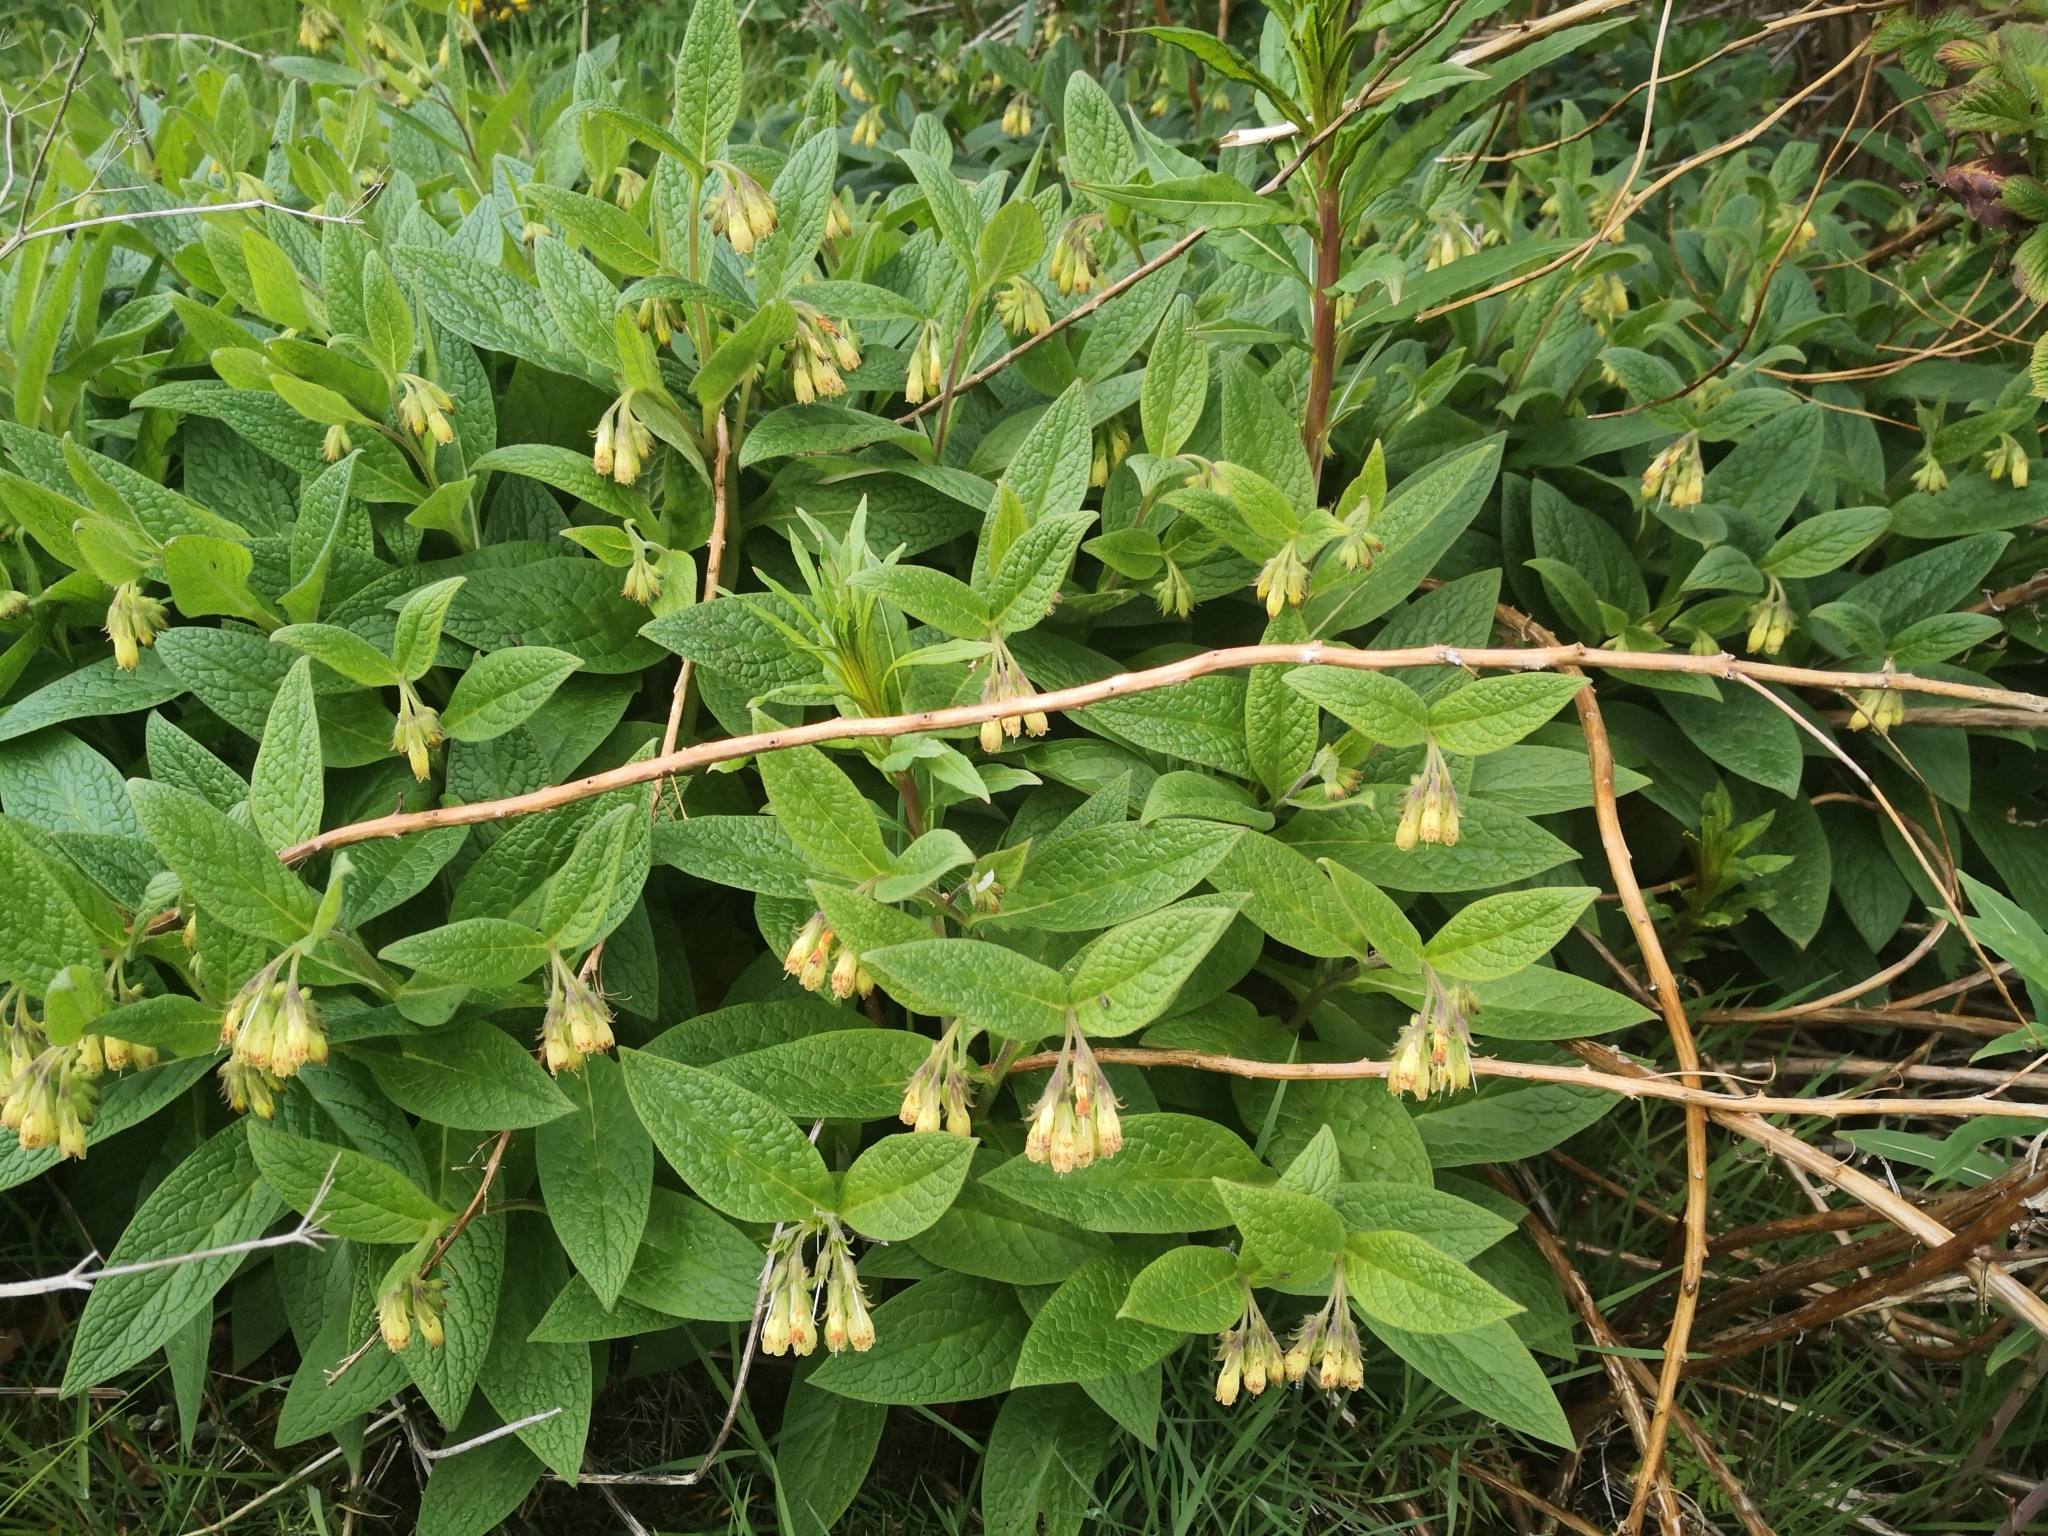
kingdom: Plantae
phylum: Tracheophyta
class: Magnoliopsida
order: Boraginales
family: Boraginaceae
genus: Symphytum
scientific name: Symphytum tuberosum
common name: Tuberous comfrey
